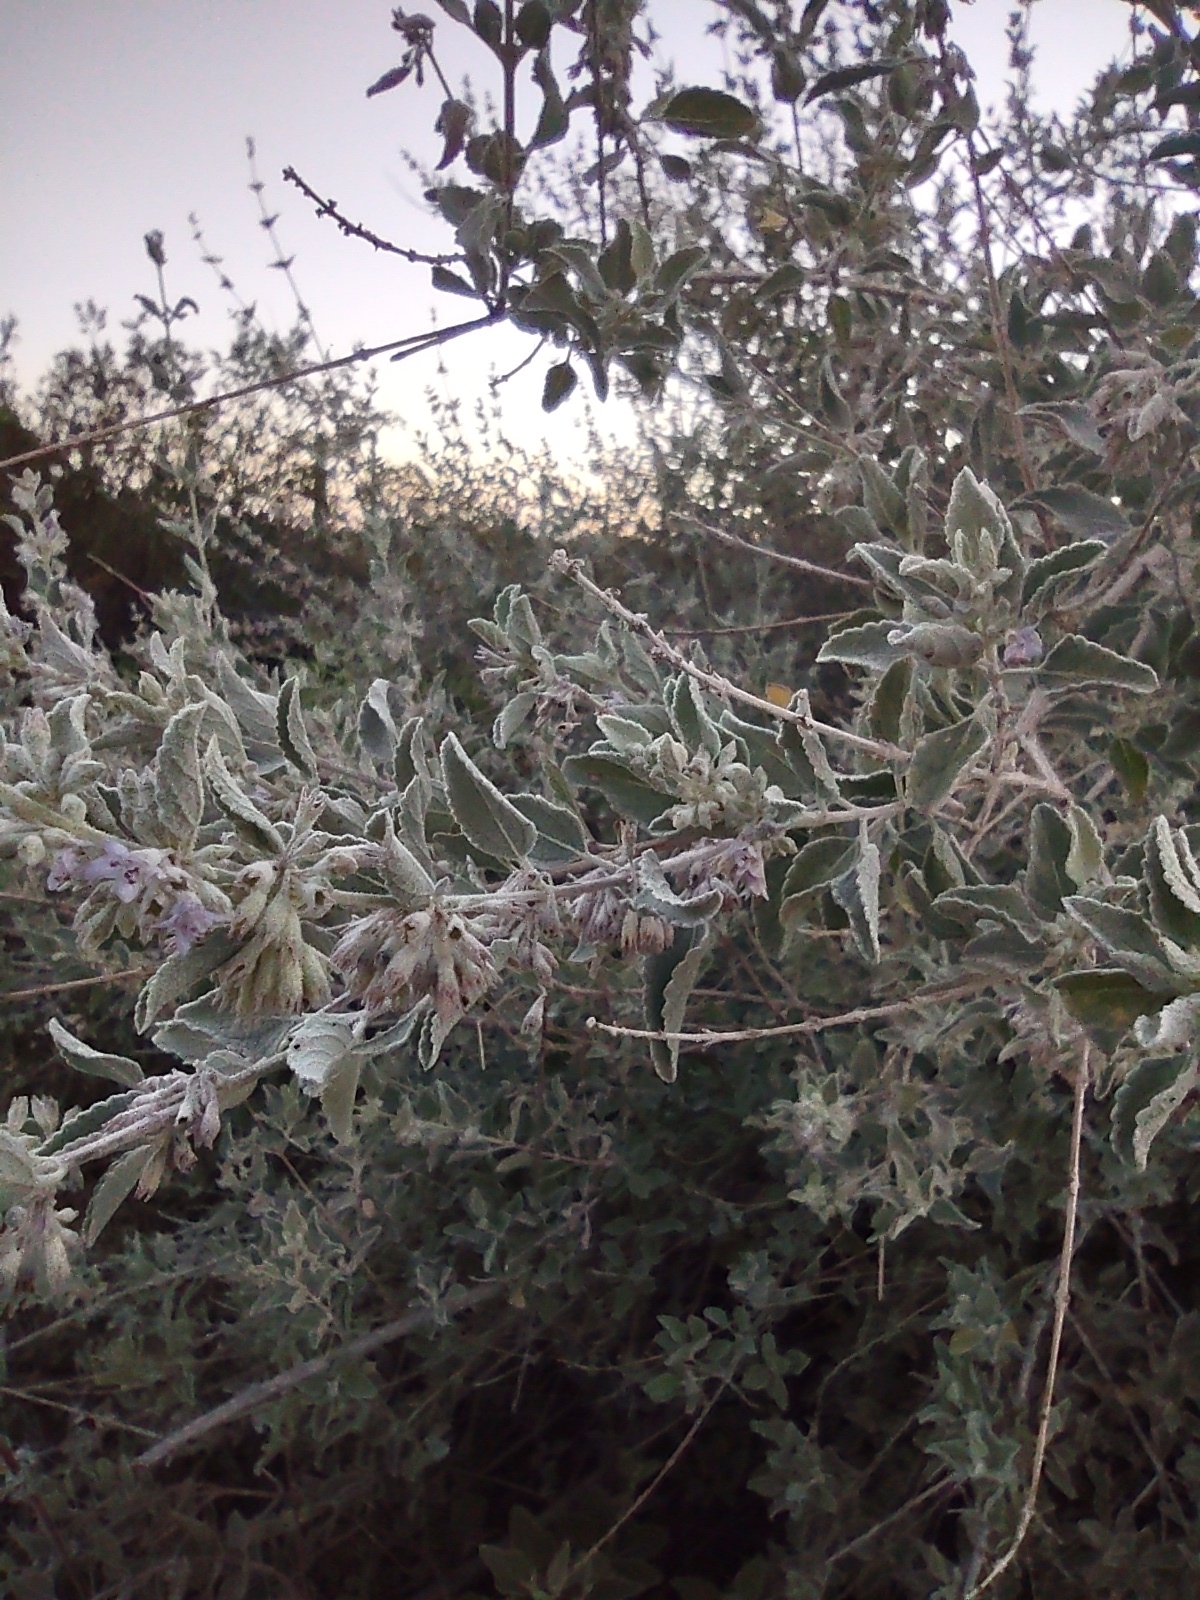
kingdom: Plantae
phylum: Tracheophyta
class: Magnoliopsida
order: Lamiales
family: Lamiaceae
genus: Condea
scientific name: Condea emoryi
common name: Chia
